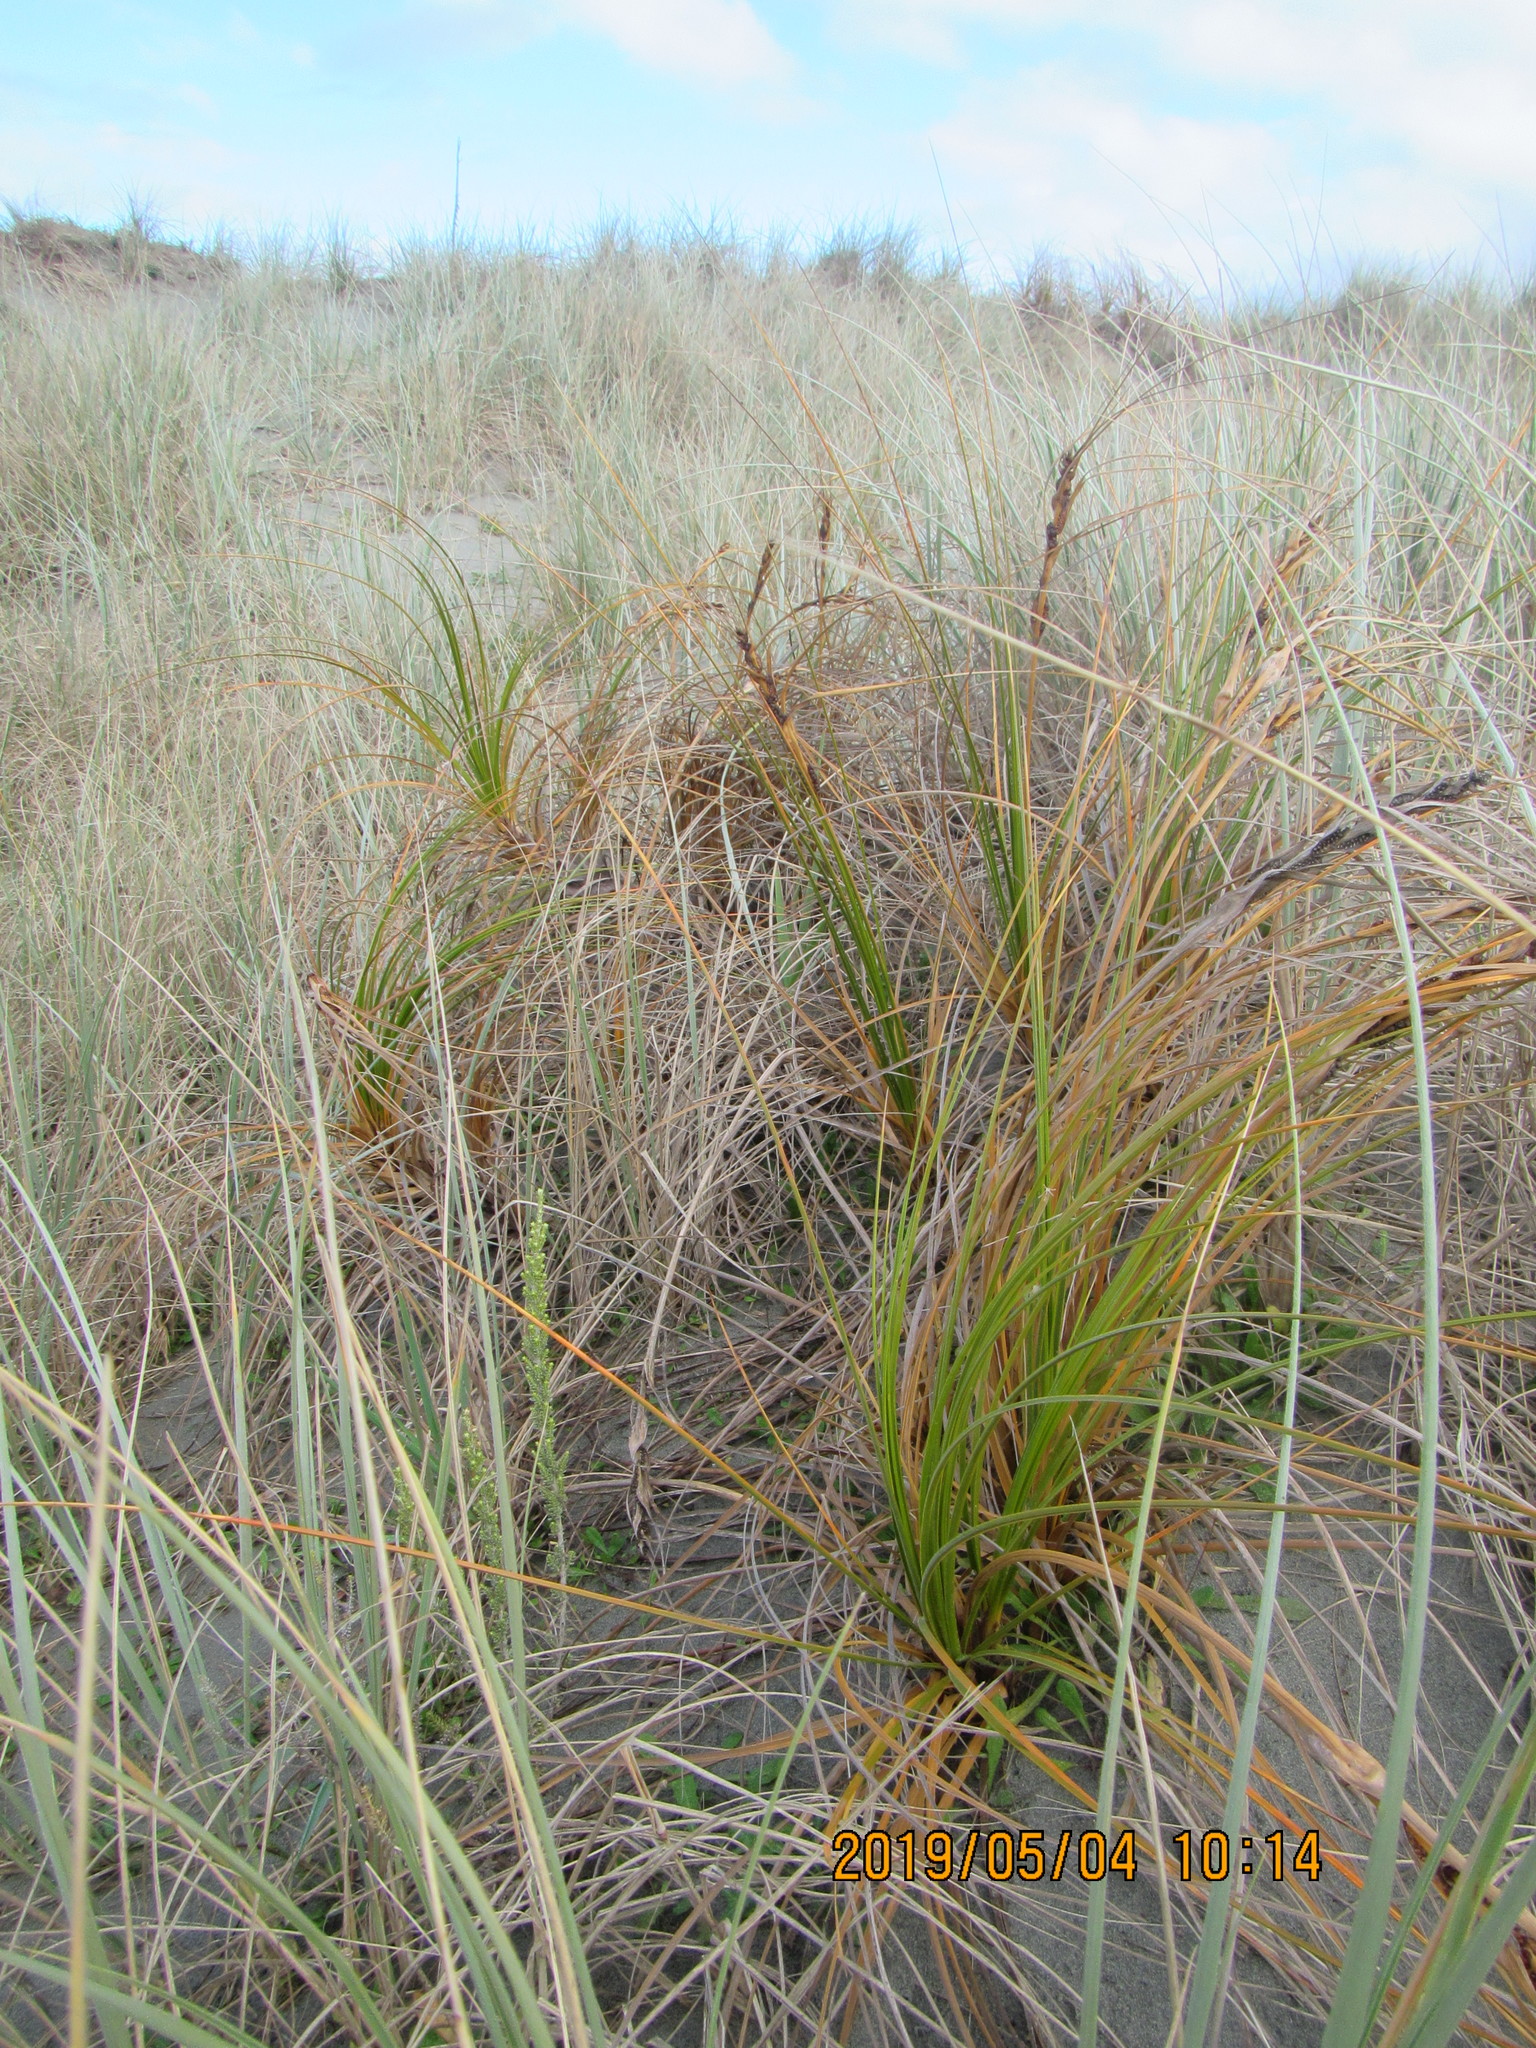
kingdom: Plantae
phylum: Tracheophyta
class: Liliopsida
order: Poales
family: Cyperaceae
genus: Ficinia
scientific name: Ficinia spiralis
